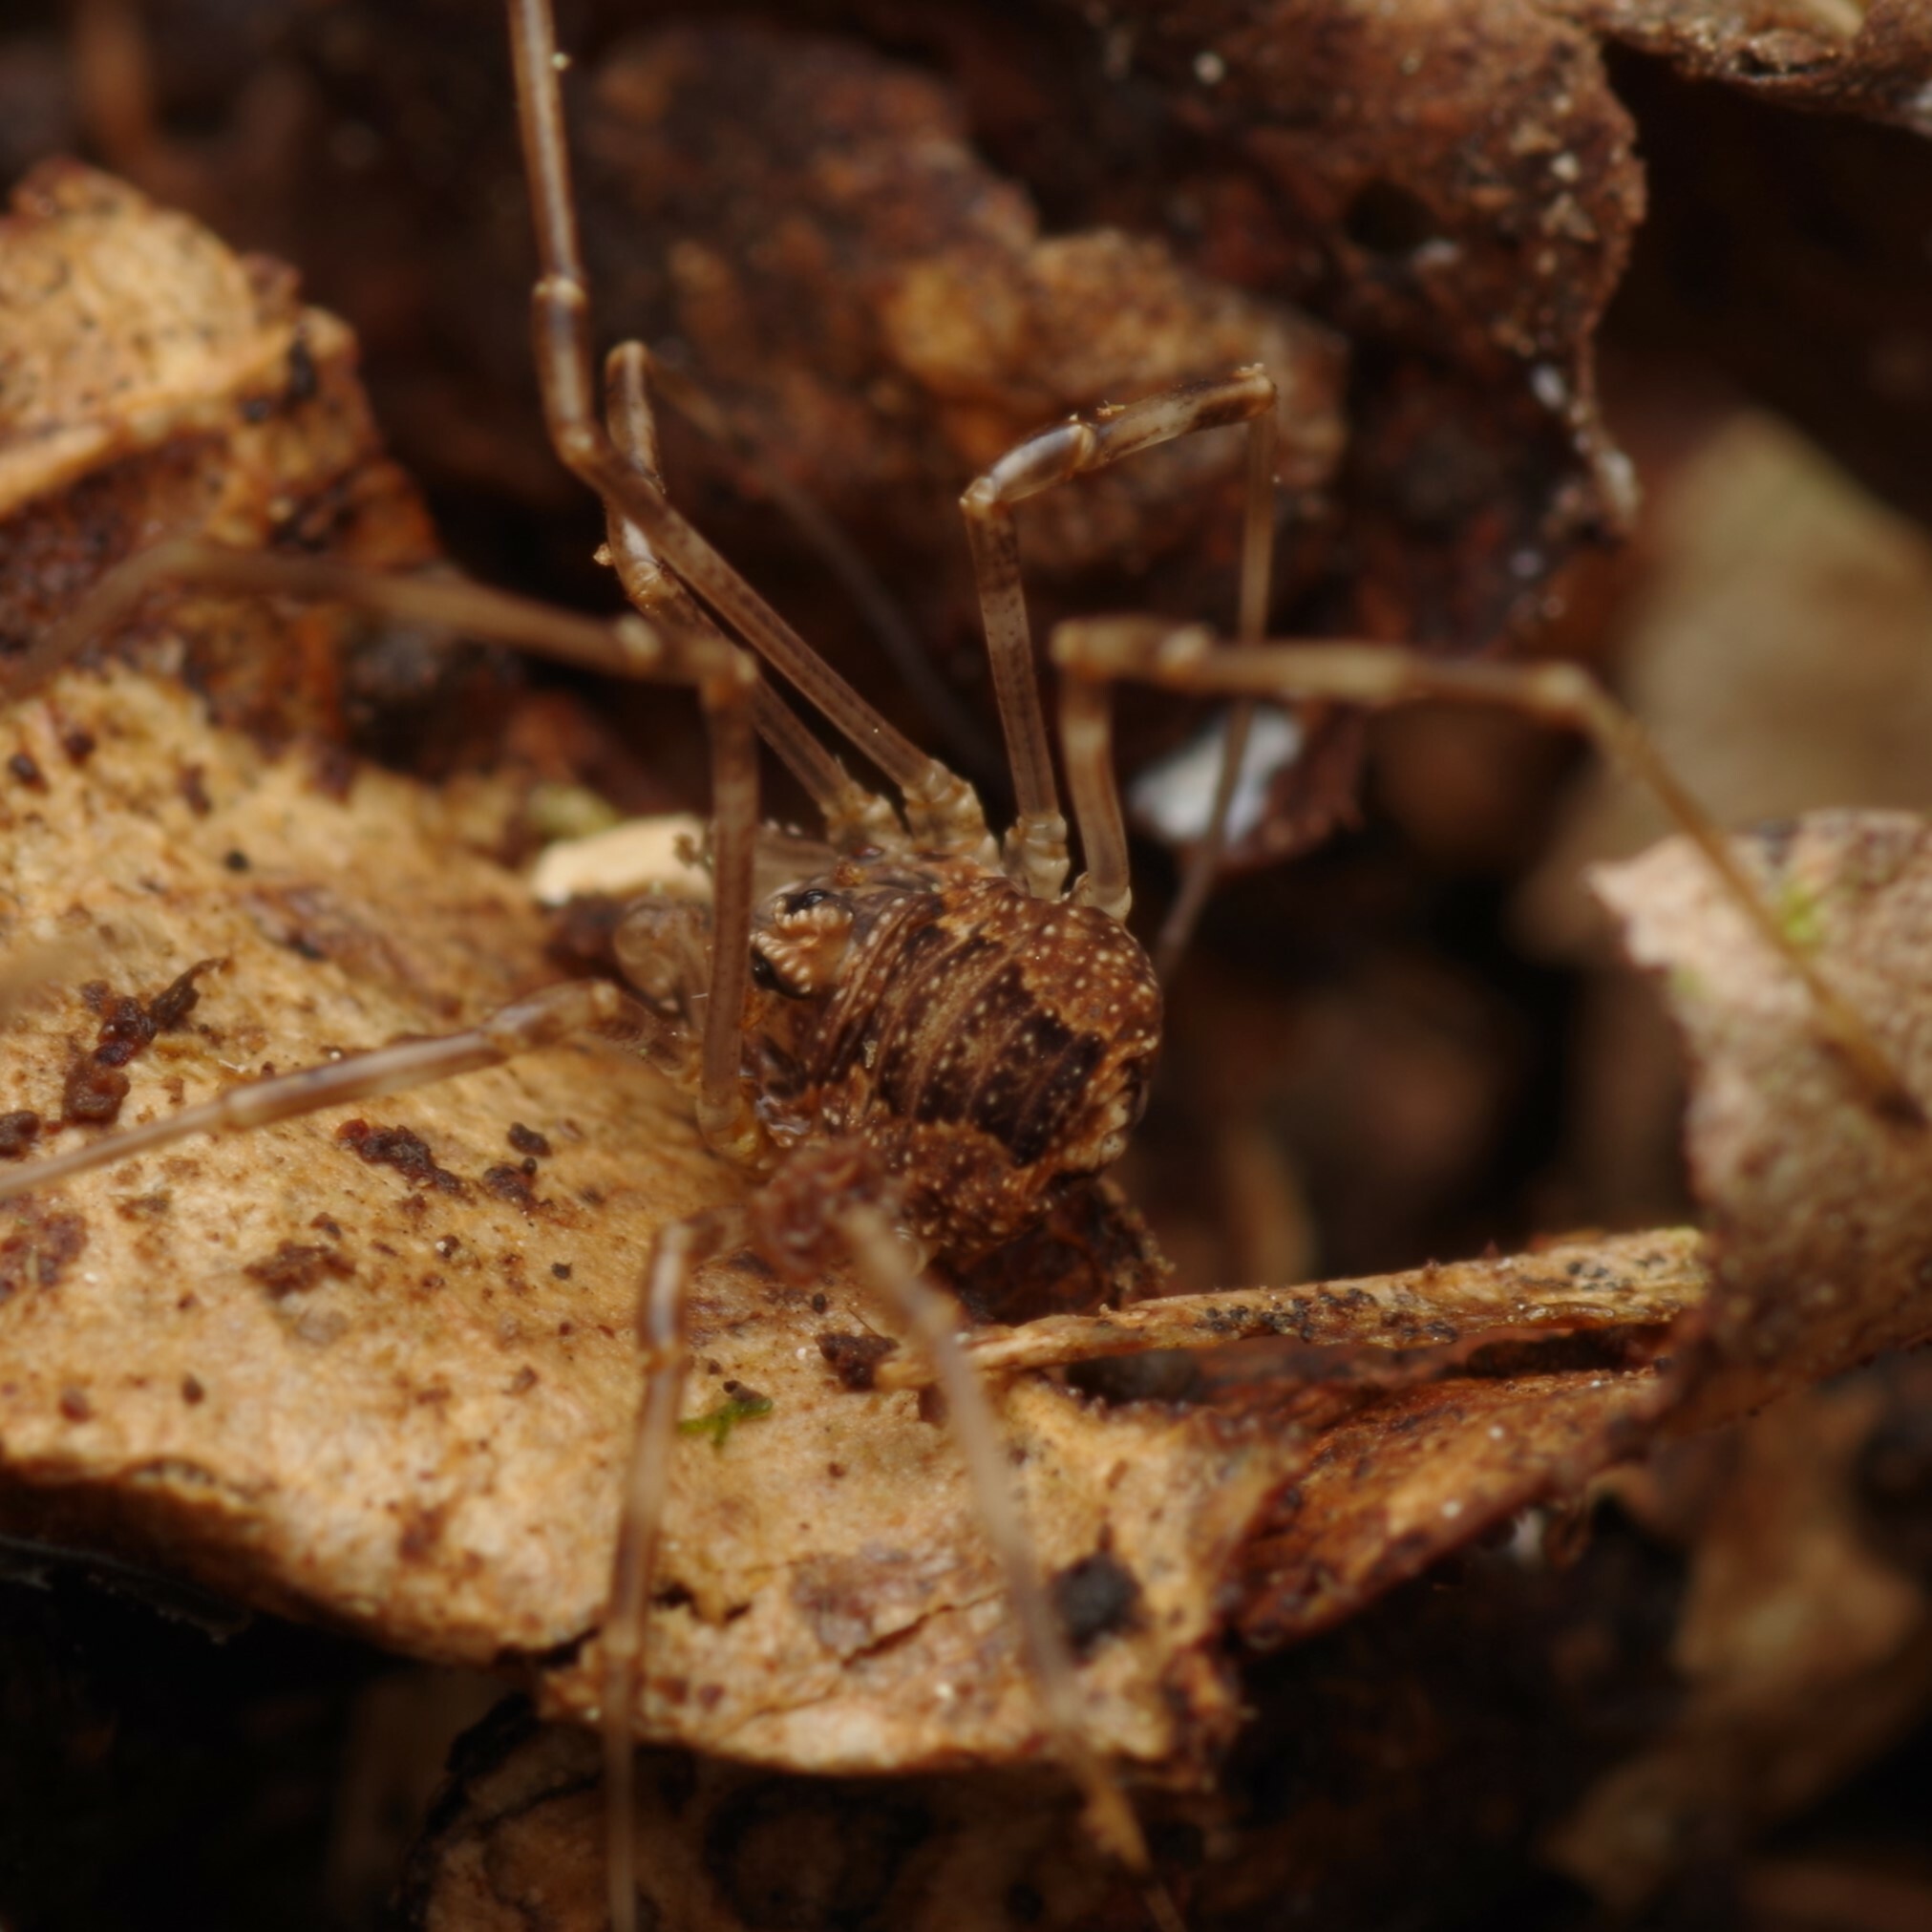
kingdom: Animalia
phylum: Arthropoda
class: Arachnida
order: Opiliones
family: Phalangiidae
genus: Rilaena
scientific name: Rilaena triangularis
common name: Spring harvestman
